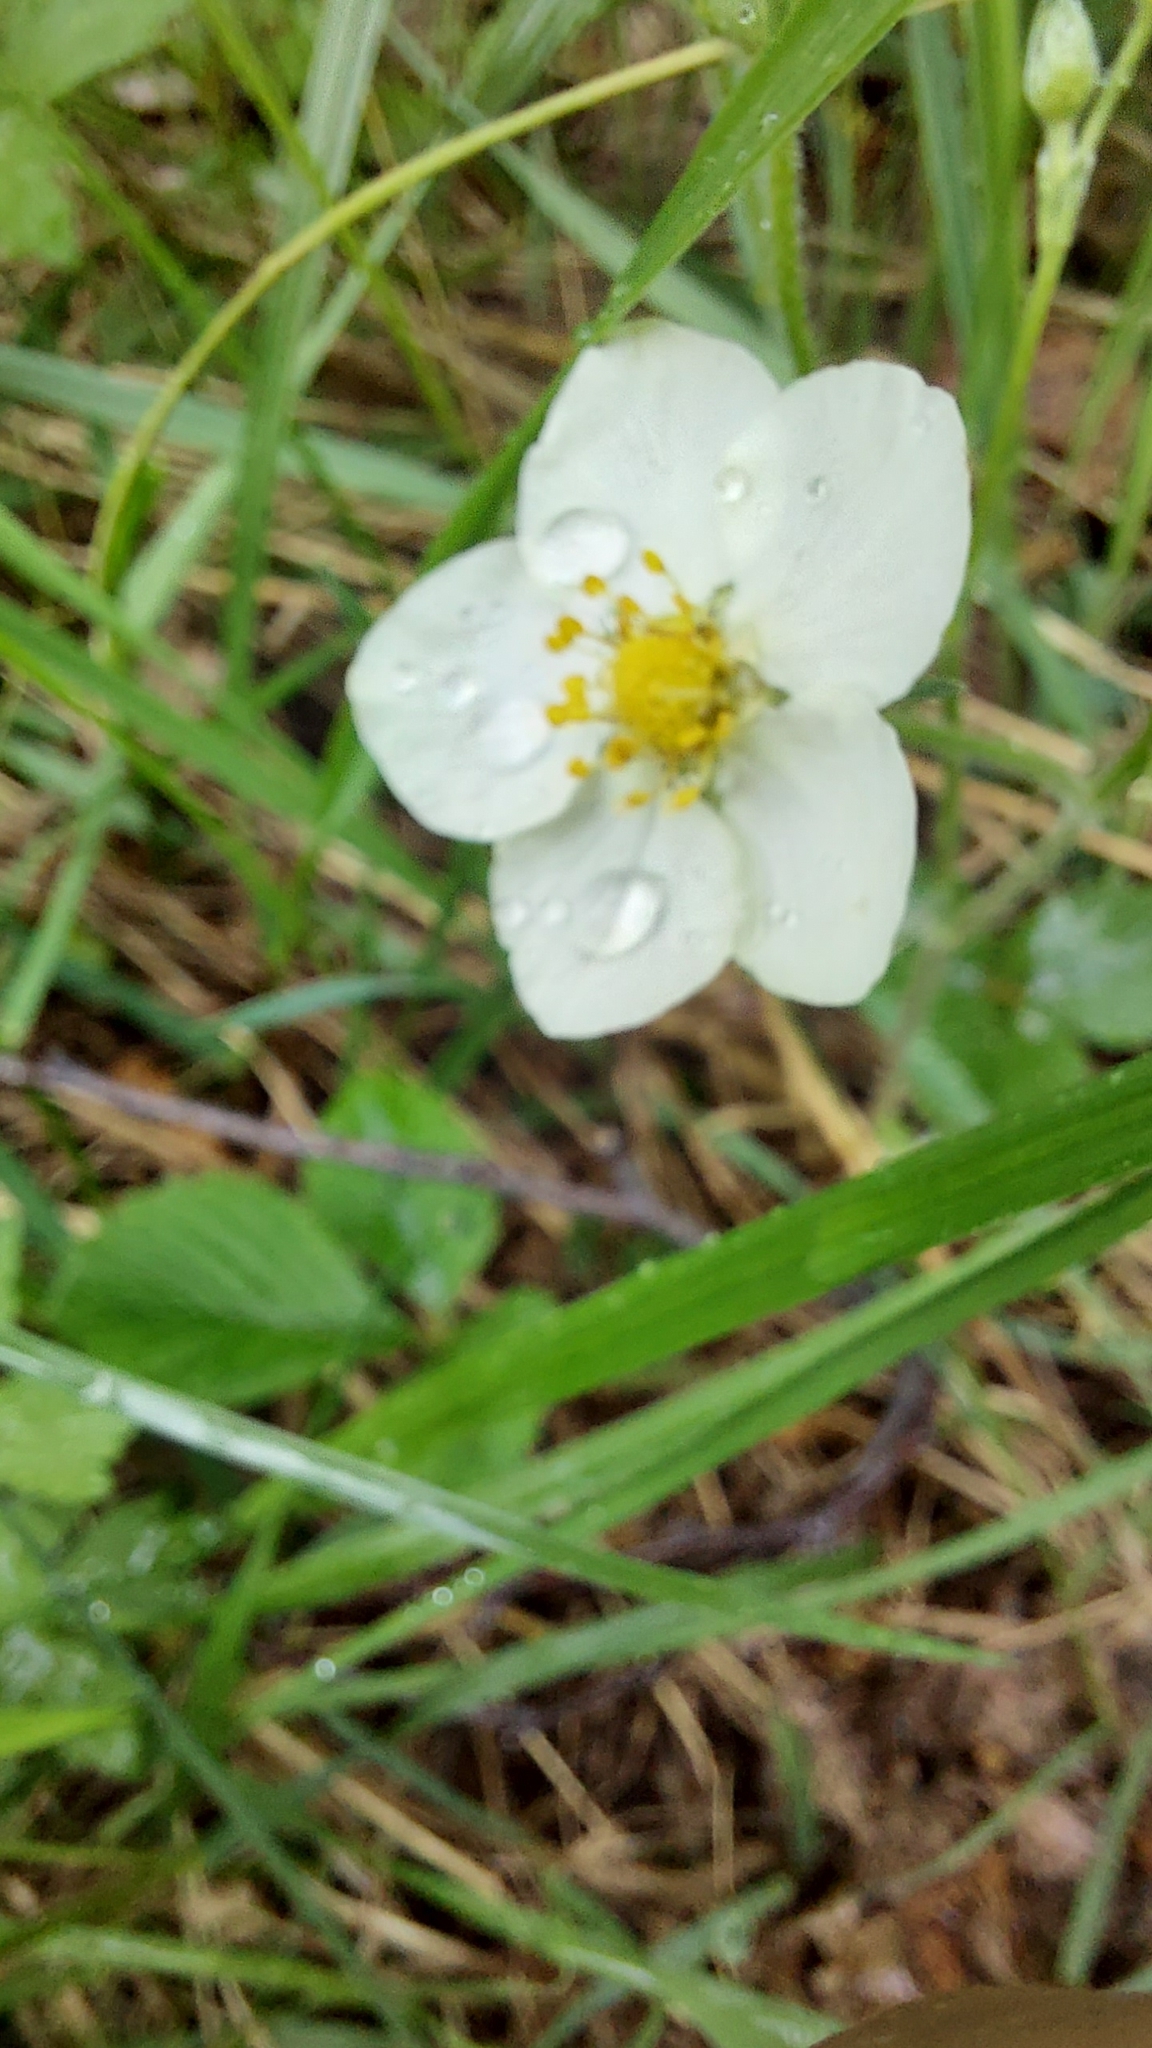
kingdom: Plantae
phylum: Tracheophyta
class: Magnoliopsida
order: Rosales
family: Rosaceae
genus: Fragaria
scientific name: Fragaria viridis
